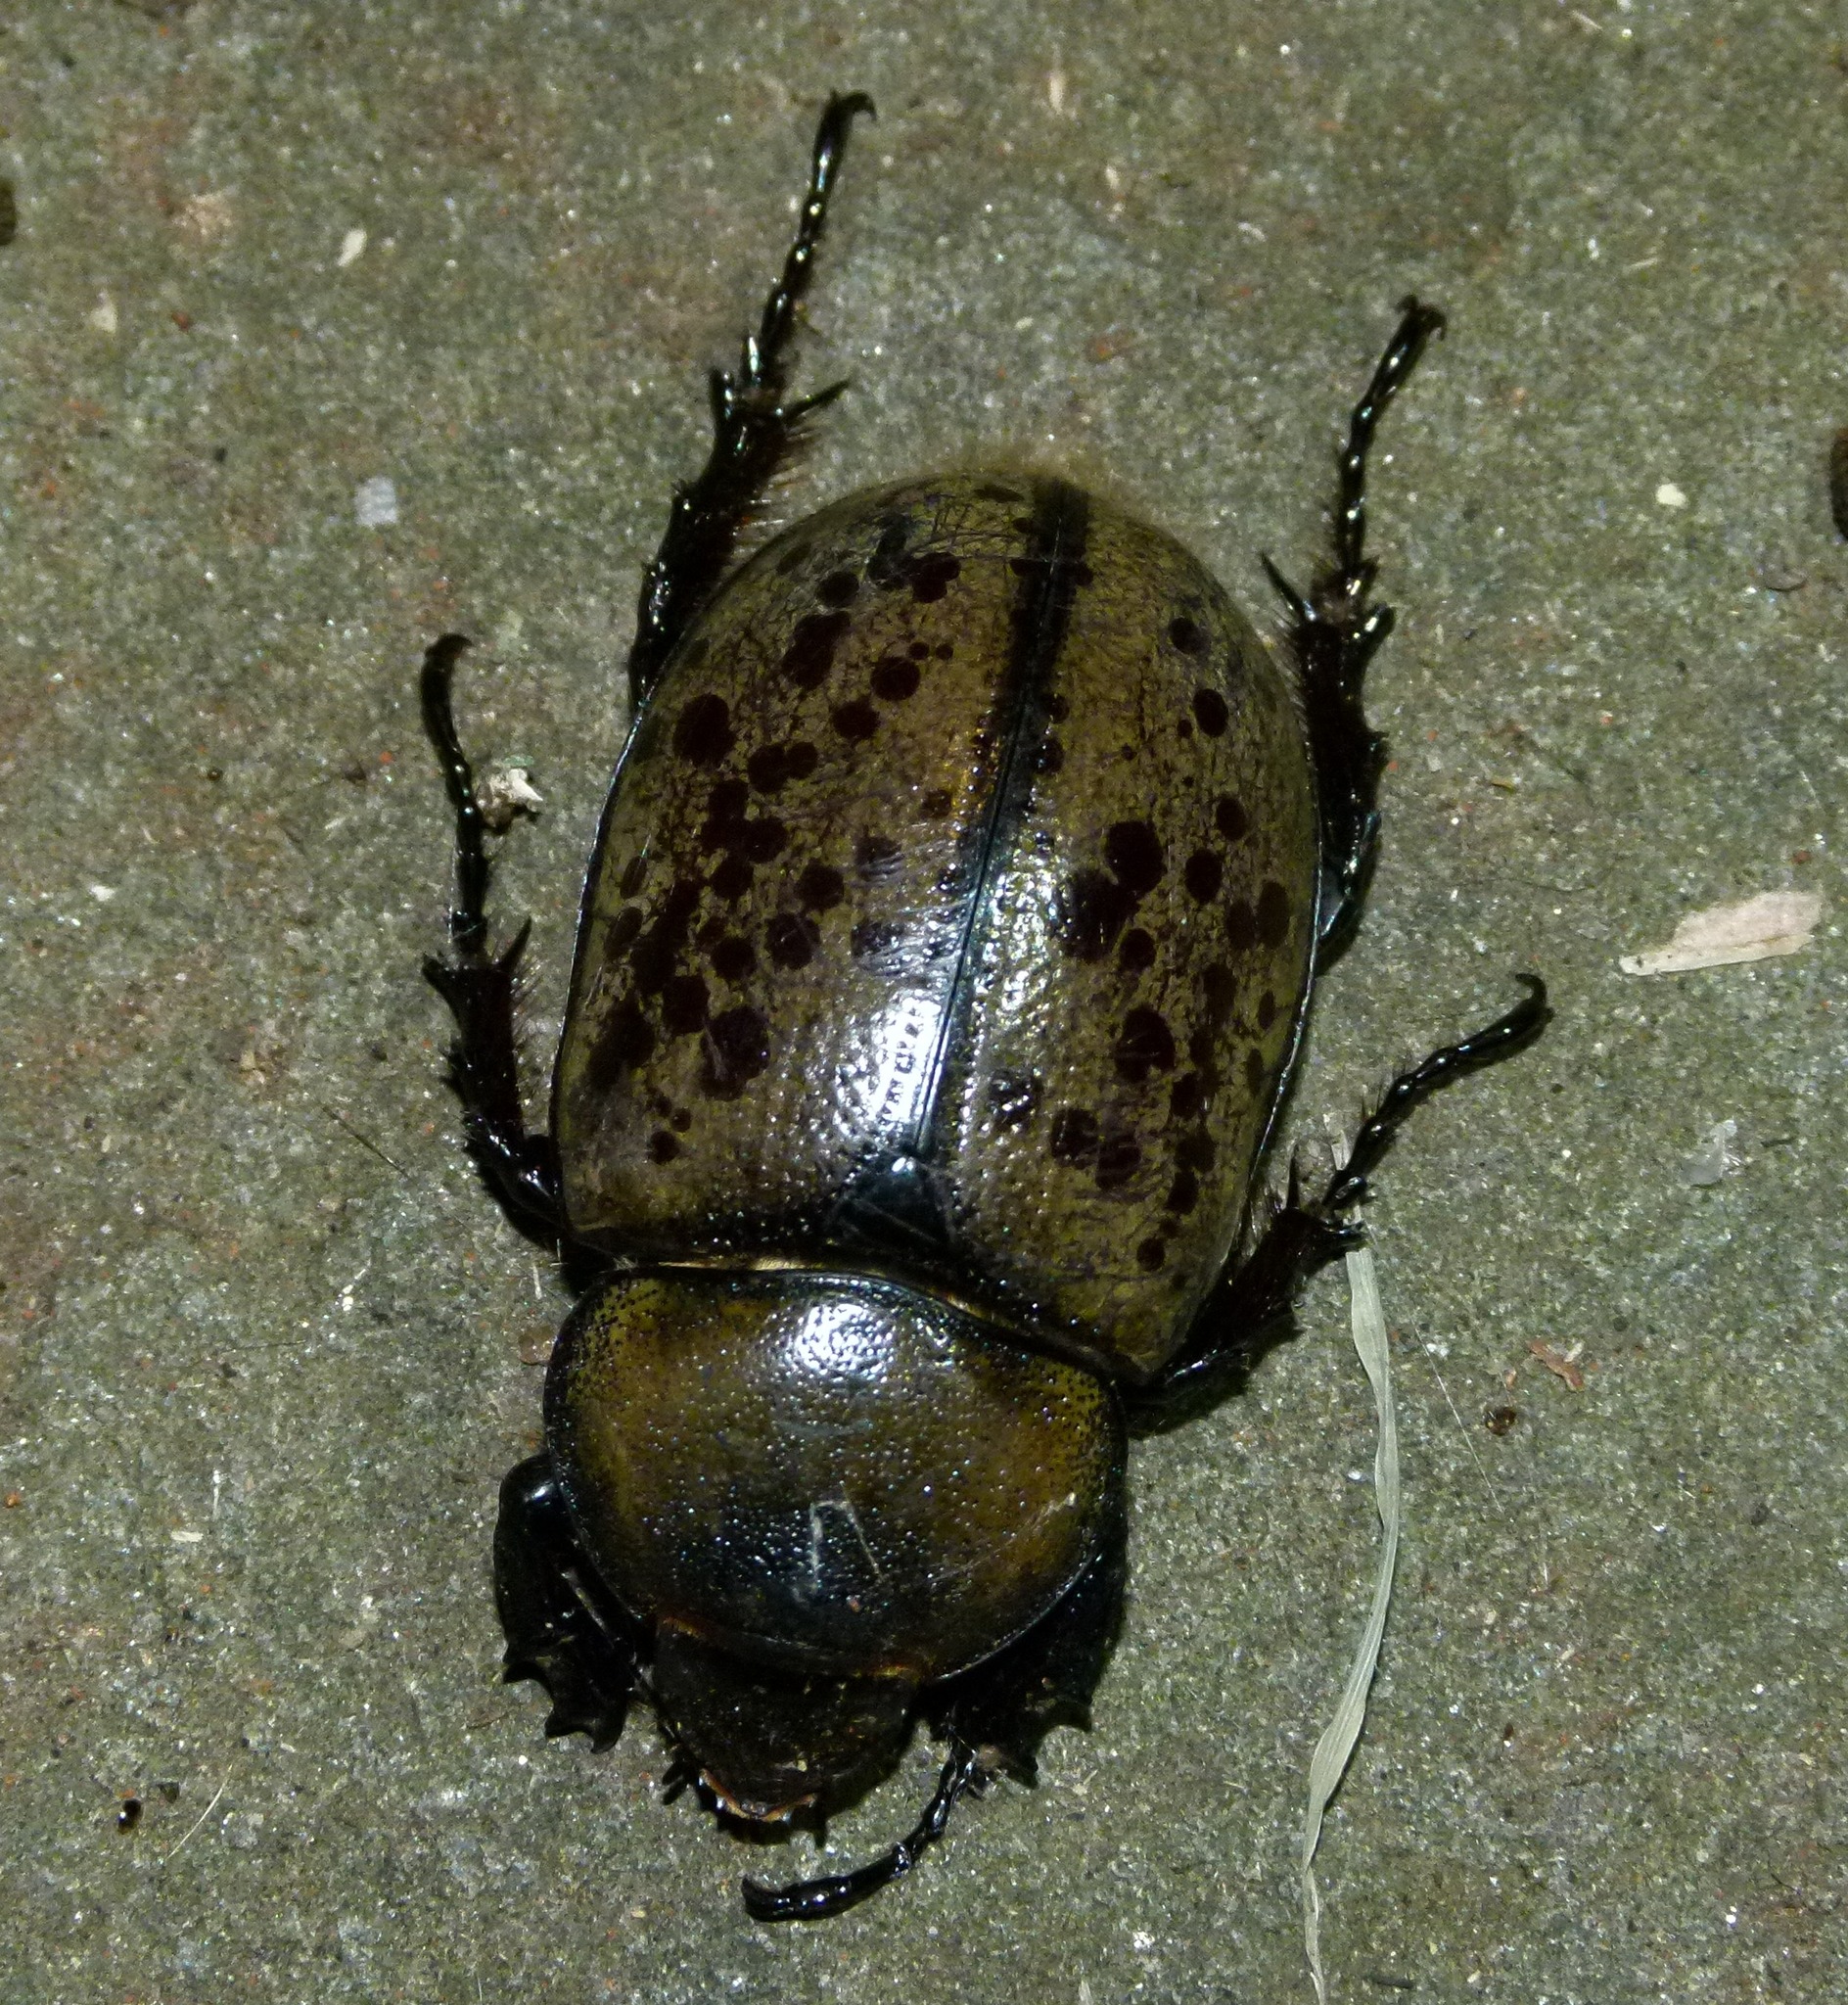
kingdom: Animalia
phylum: Arthropoda
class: Insecta
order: Coleoptera
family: Scarabaeidae
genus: Dynastes
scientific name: Dynastes tityus
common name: Eastern hercules beetle
